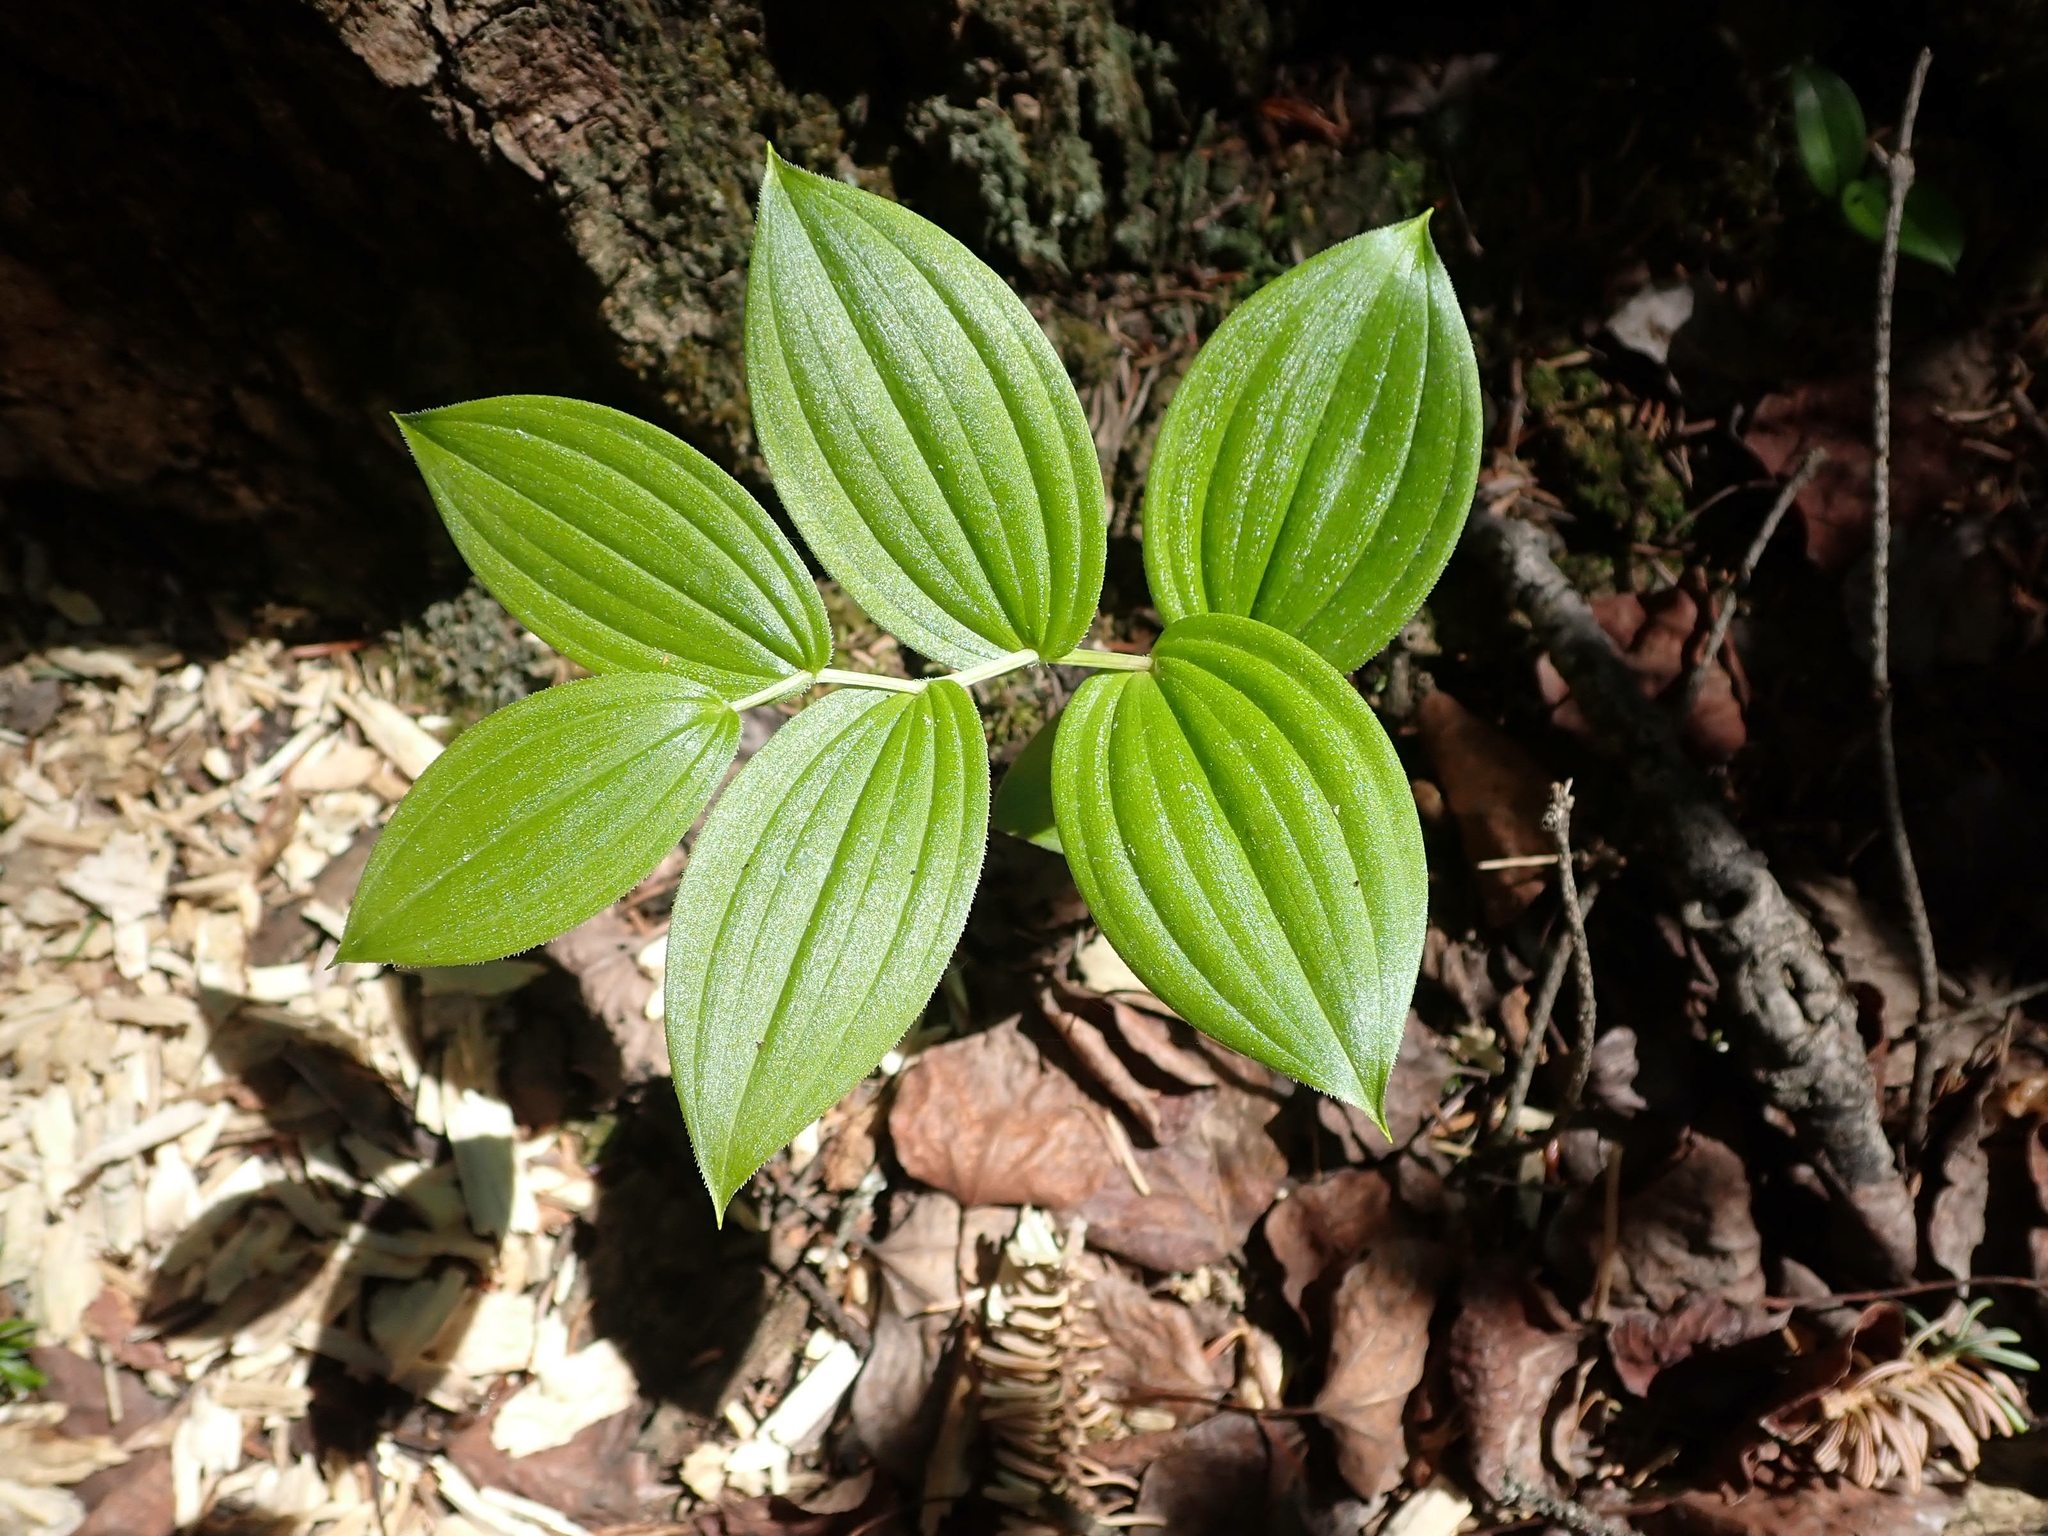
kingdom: Plantae
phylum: Tracheophyta
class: Liliopsida
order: Liliales
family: Liliaceae
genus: Streptopus
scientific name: Streptopus lanceolatus
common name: Rose mandarin
